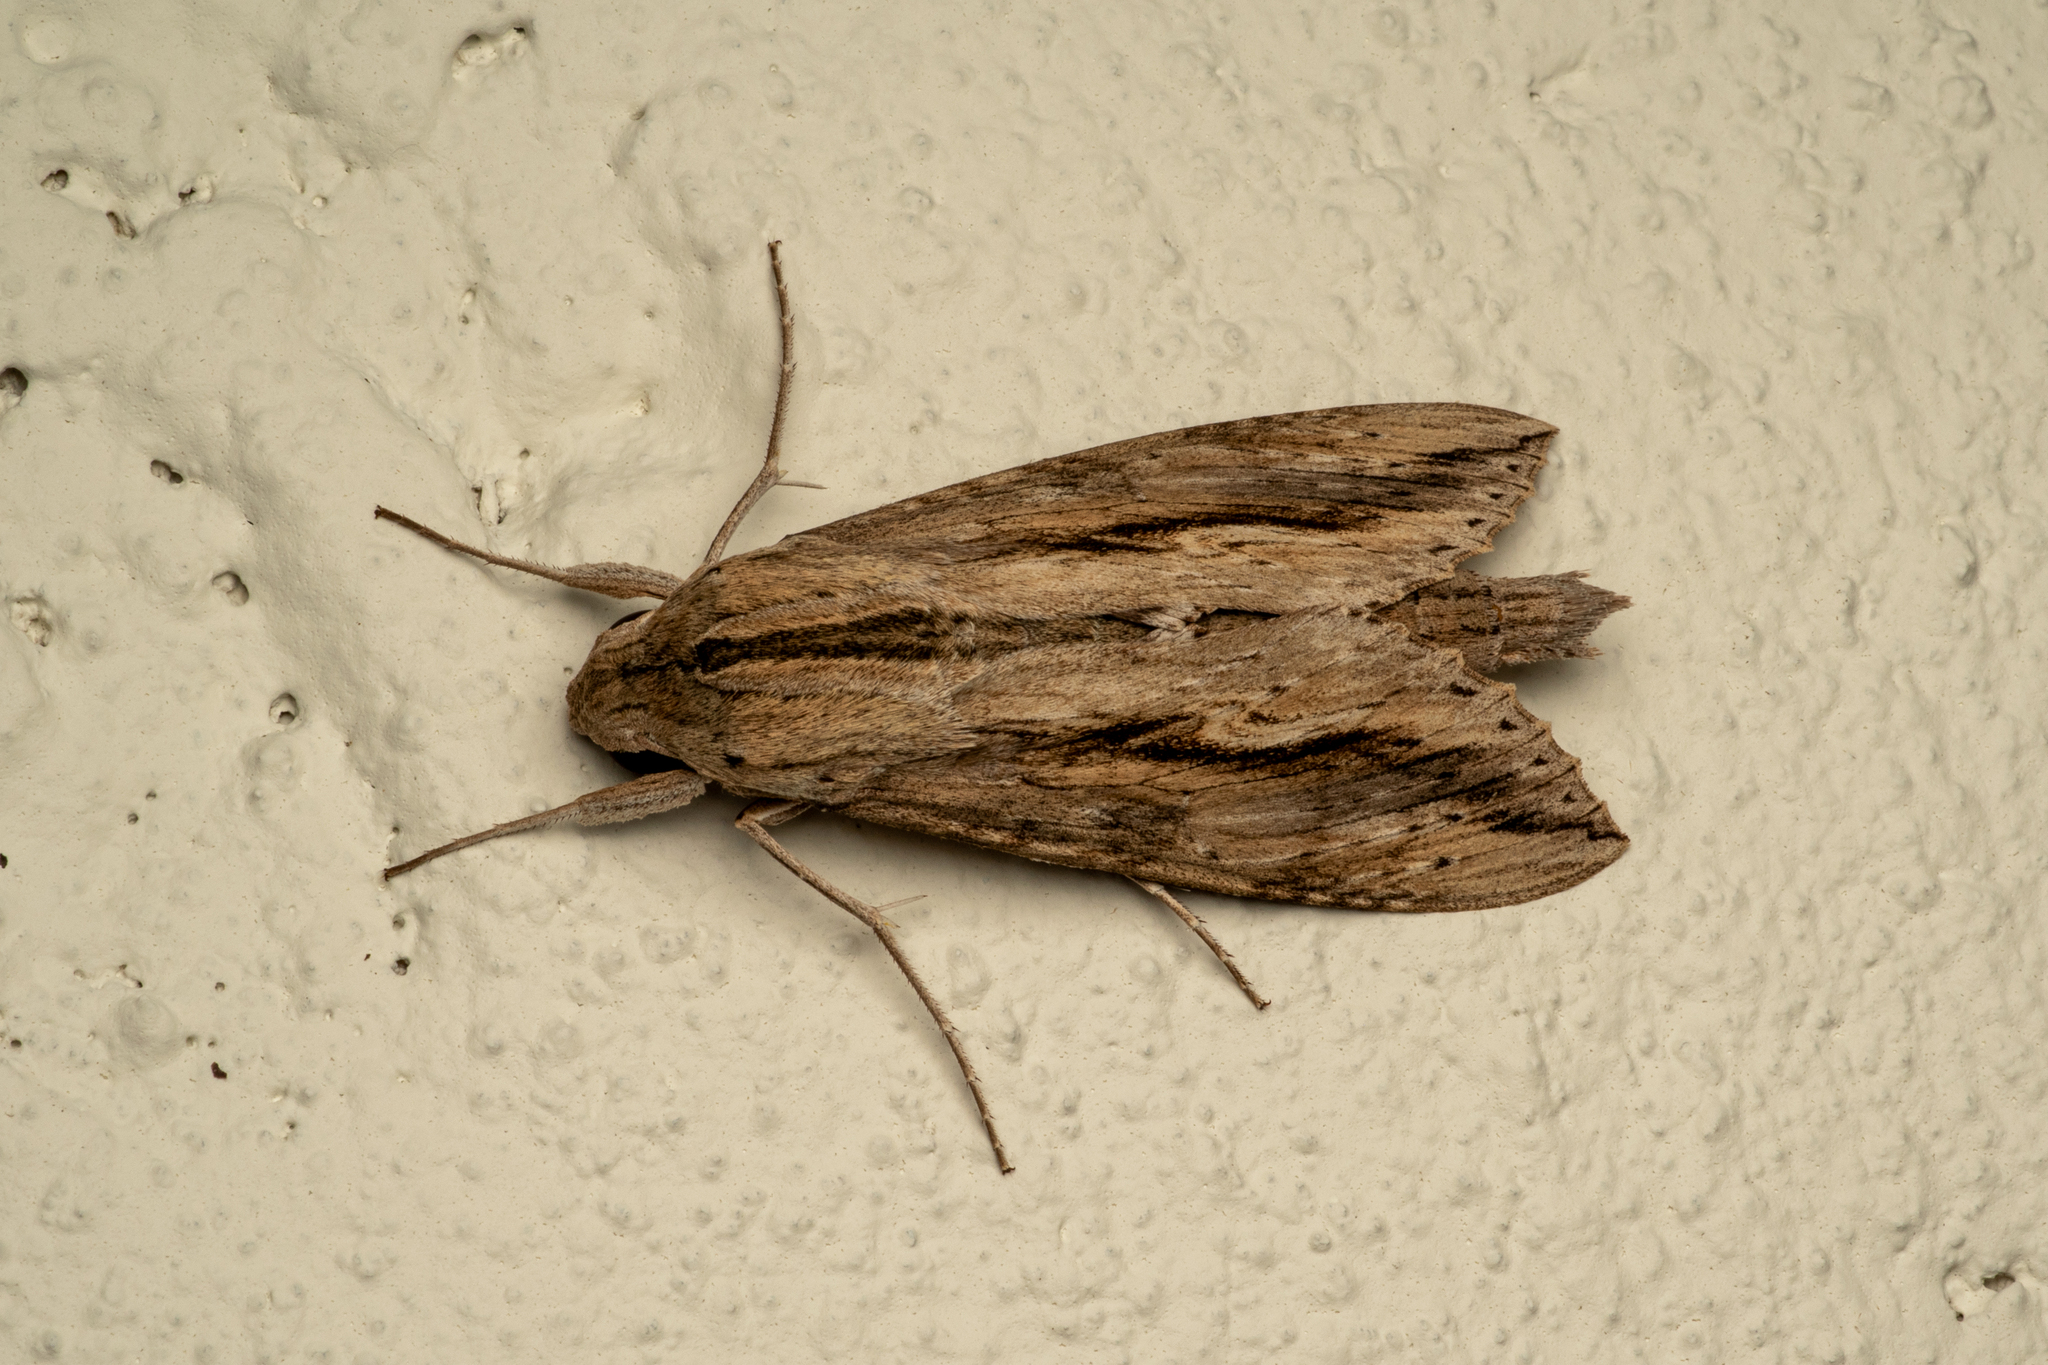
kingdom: Animalia
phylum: Arthropoda
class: Insecta
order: Lepidoptera
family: Sphingidae
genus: Erinnyis
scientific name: Erinnyis ello
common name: Ello sphinx
